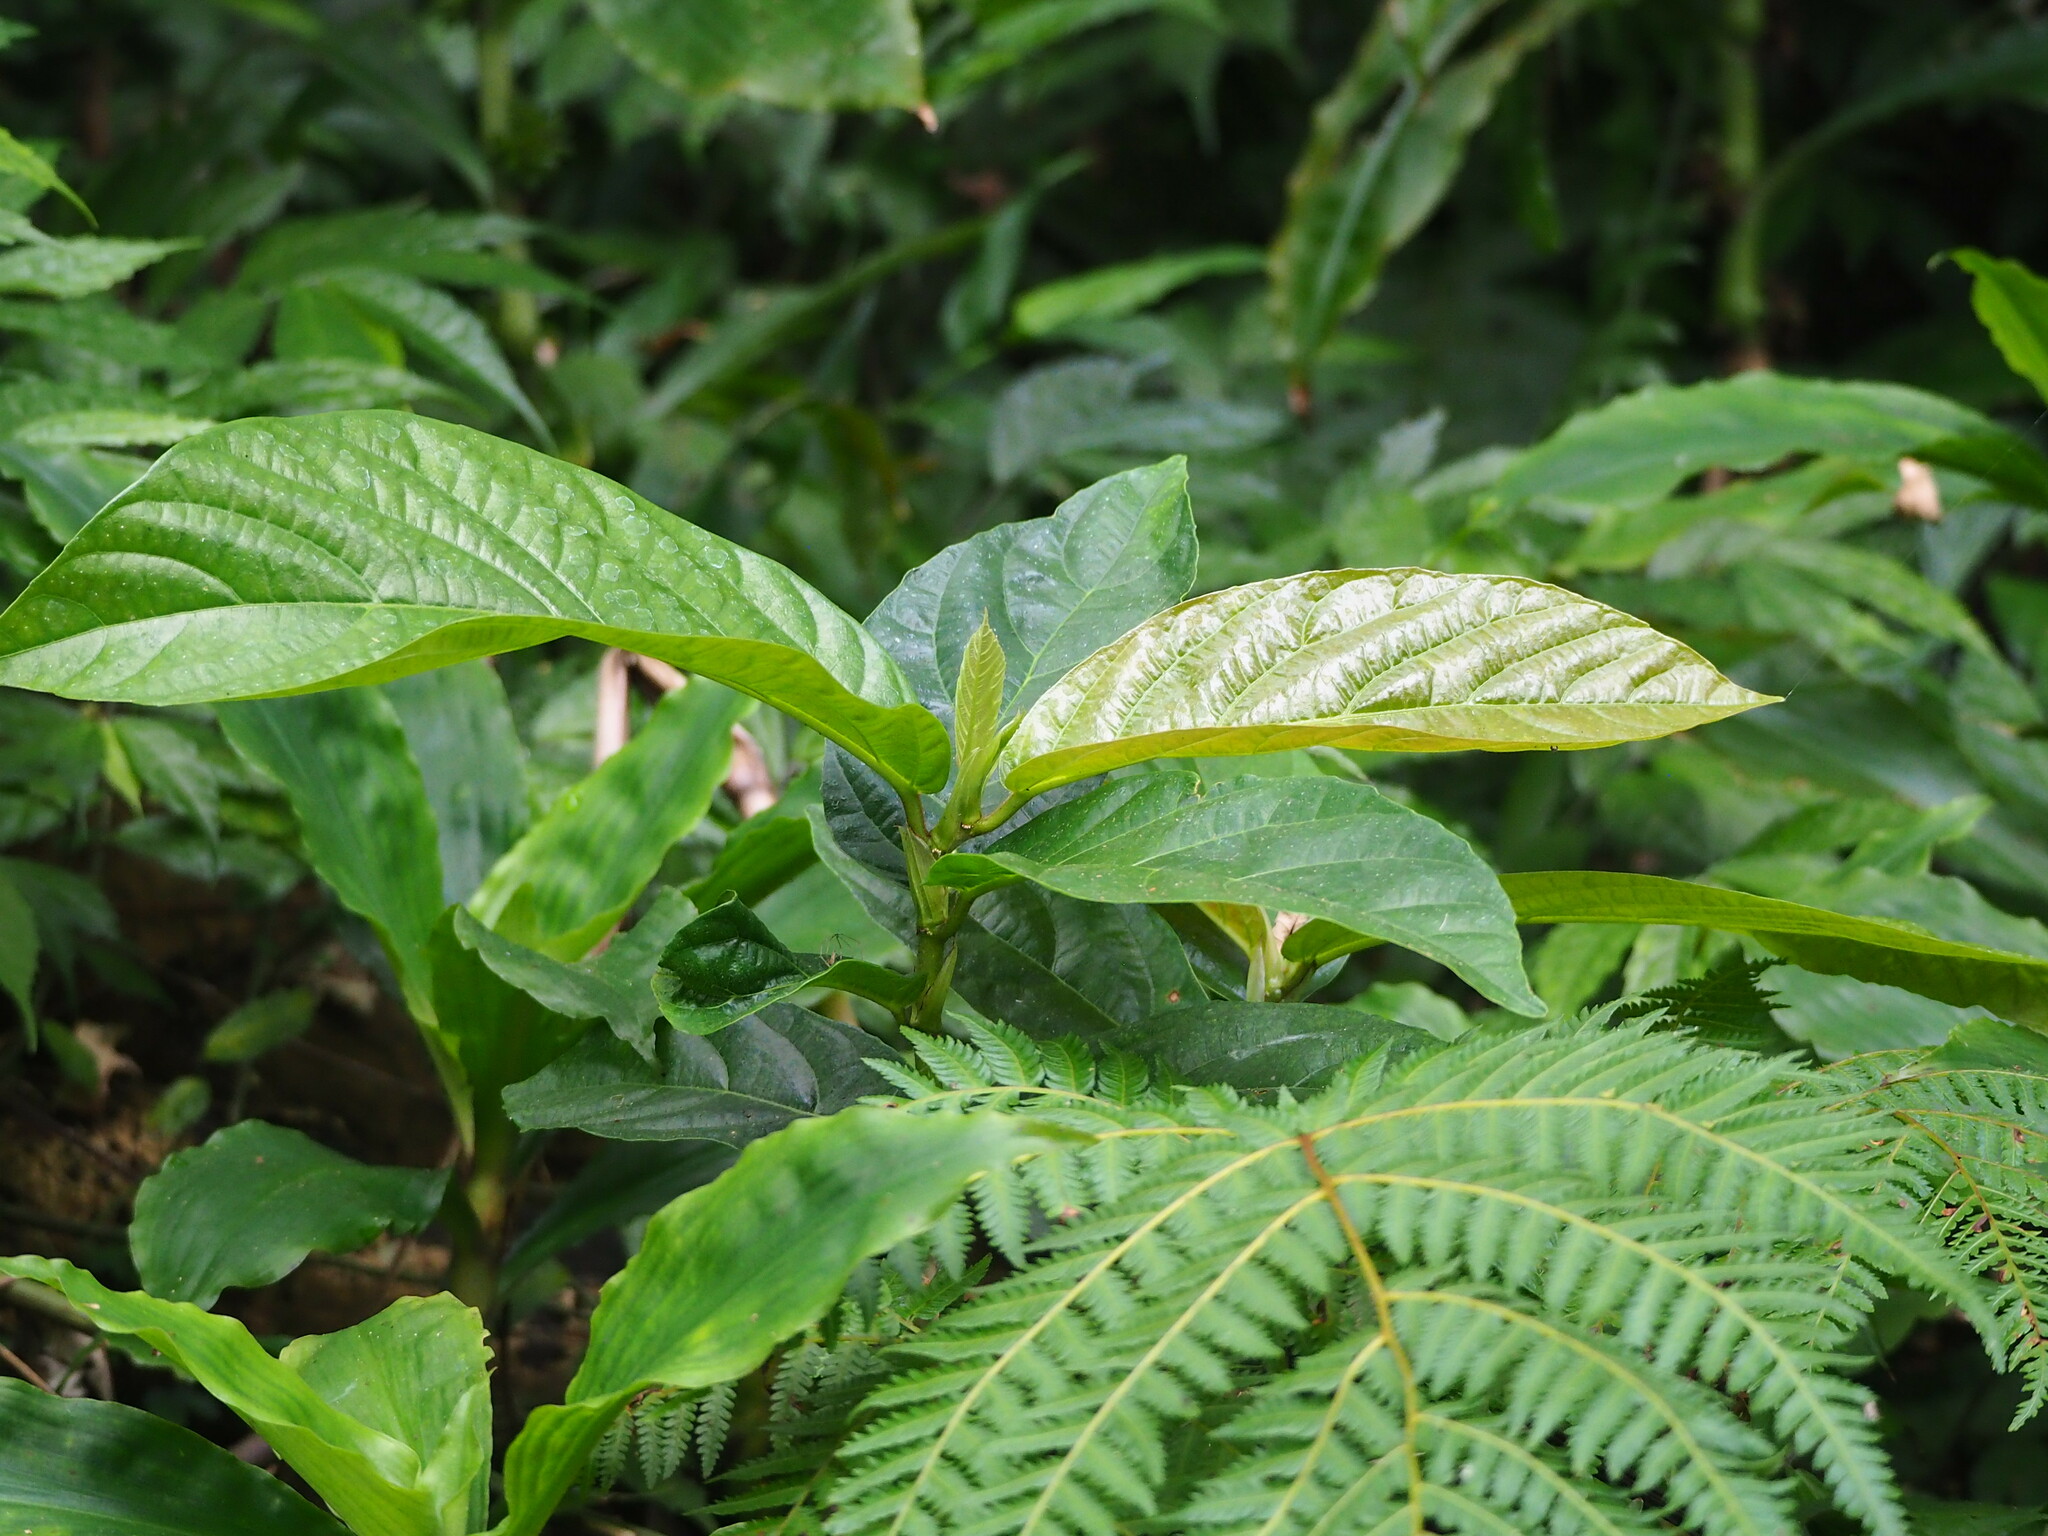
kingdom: Plantae
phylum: Tracheophyta
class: Magnoliopsida
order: Rosales
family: Moraceae
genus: Ficus
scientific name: Ficus benguetensis
